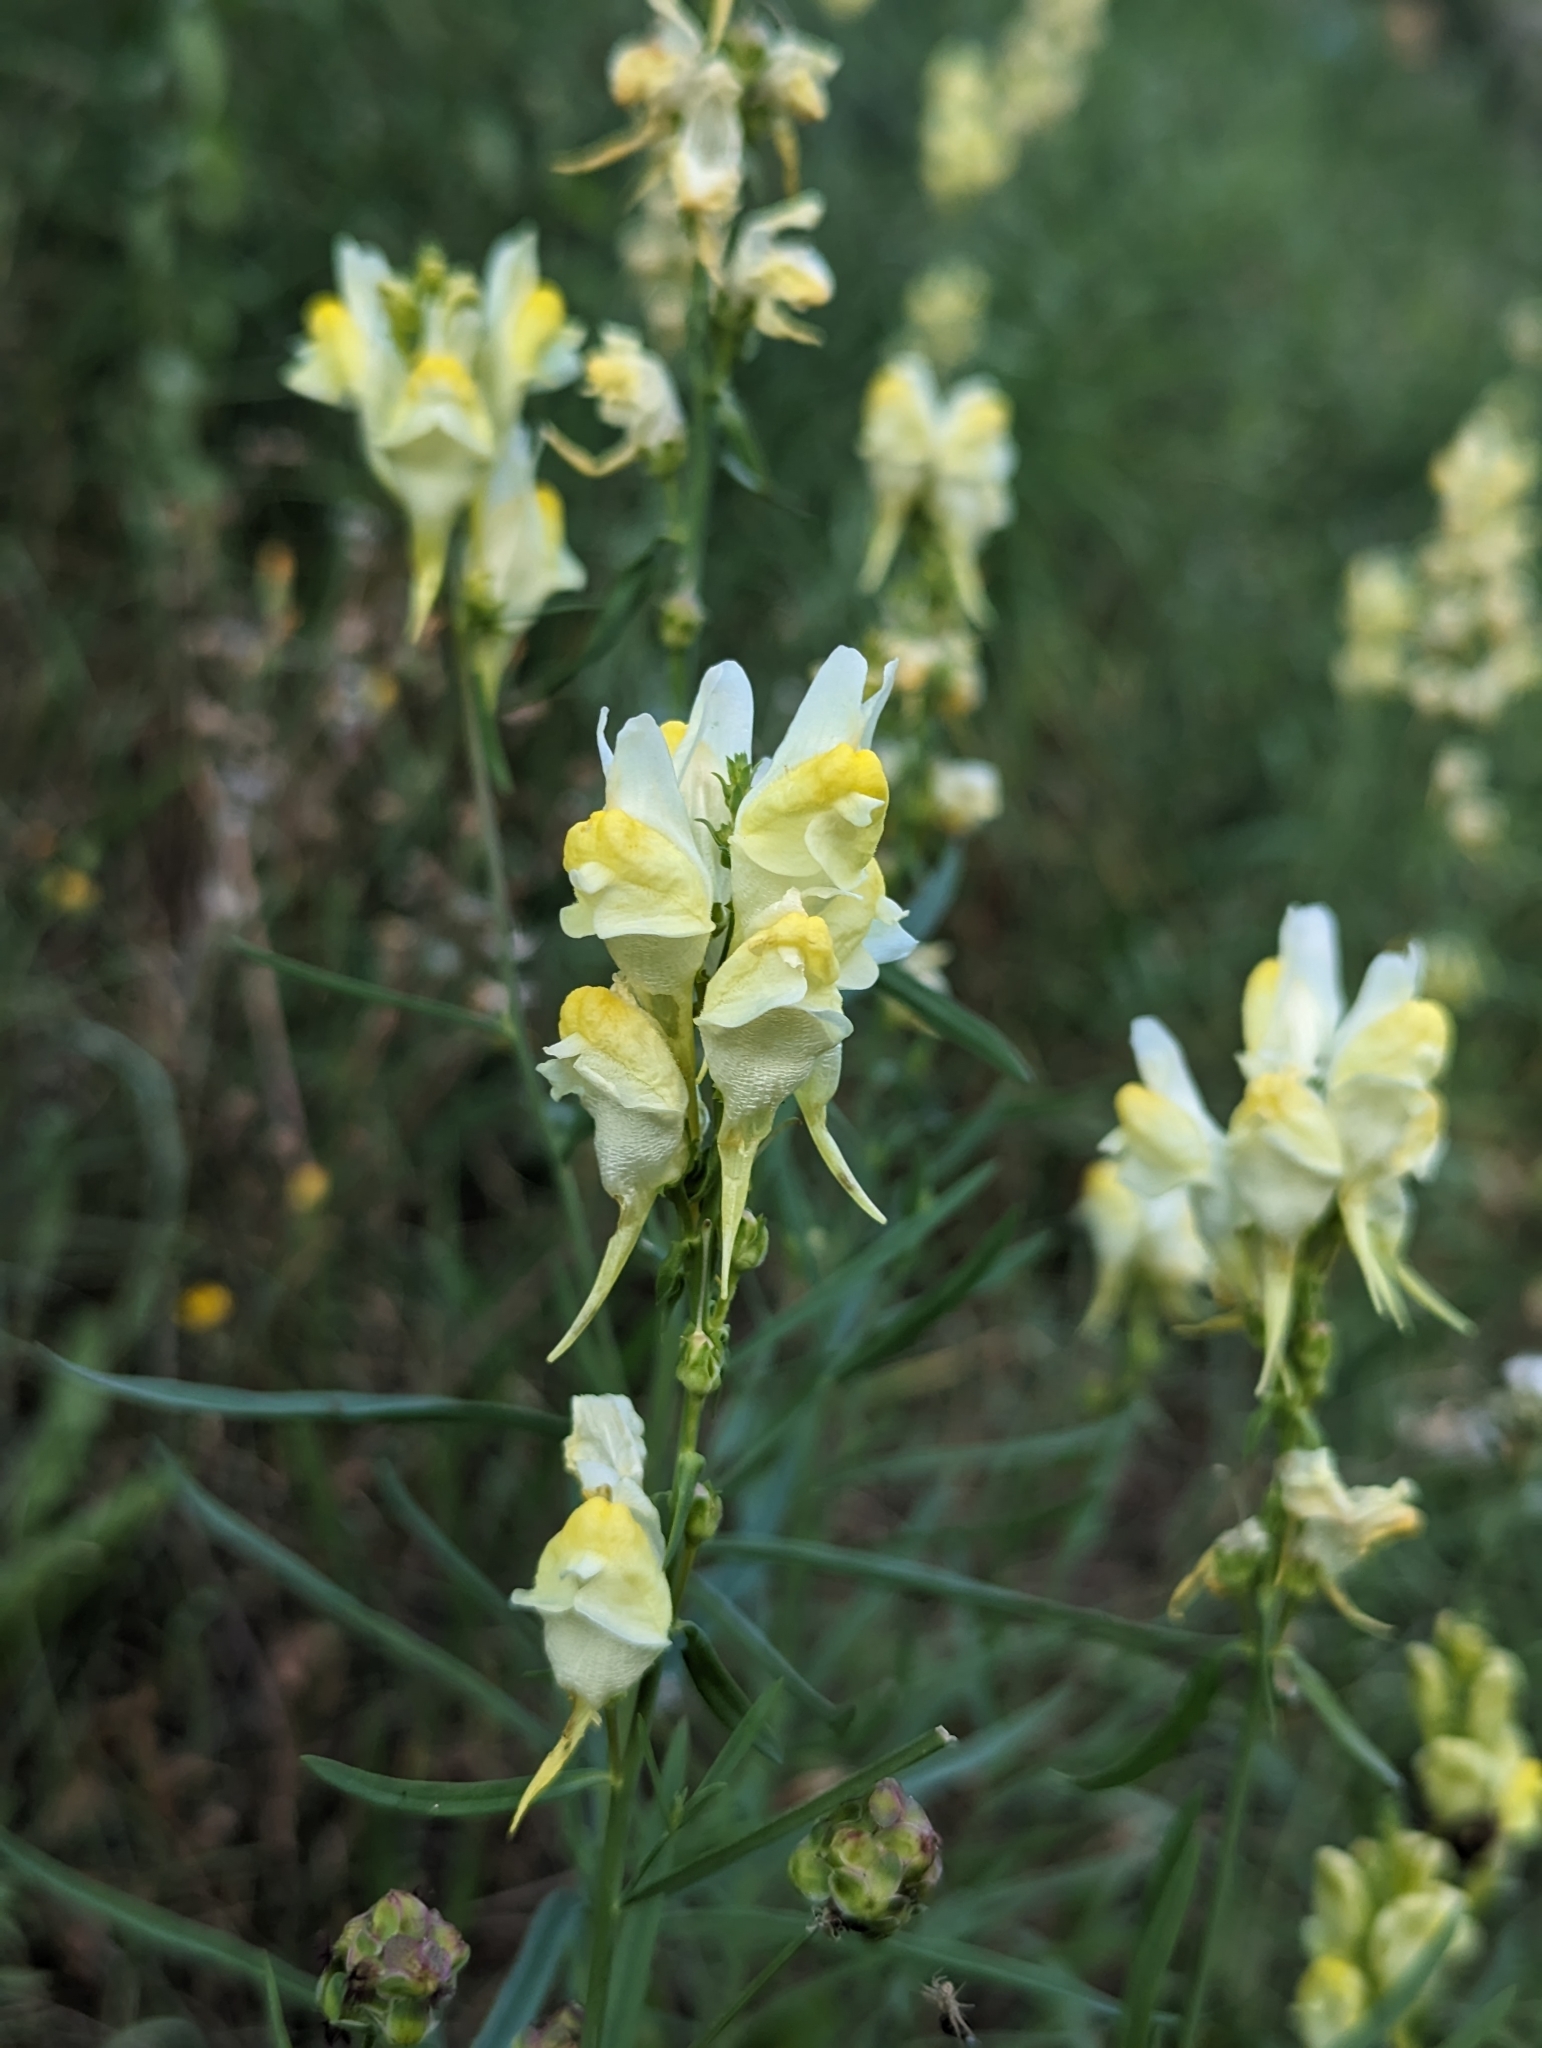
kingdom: Plantae
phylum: Tracheophyta
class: Magnoliopsida
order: Lamiales
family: Plantaginaceae
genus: Linaria
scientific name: Linaria vulgaris
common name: Butter and eggs
